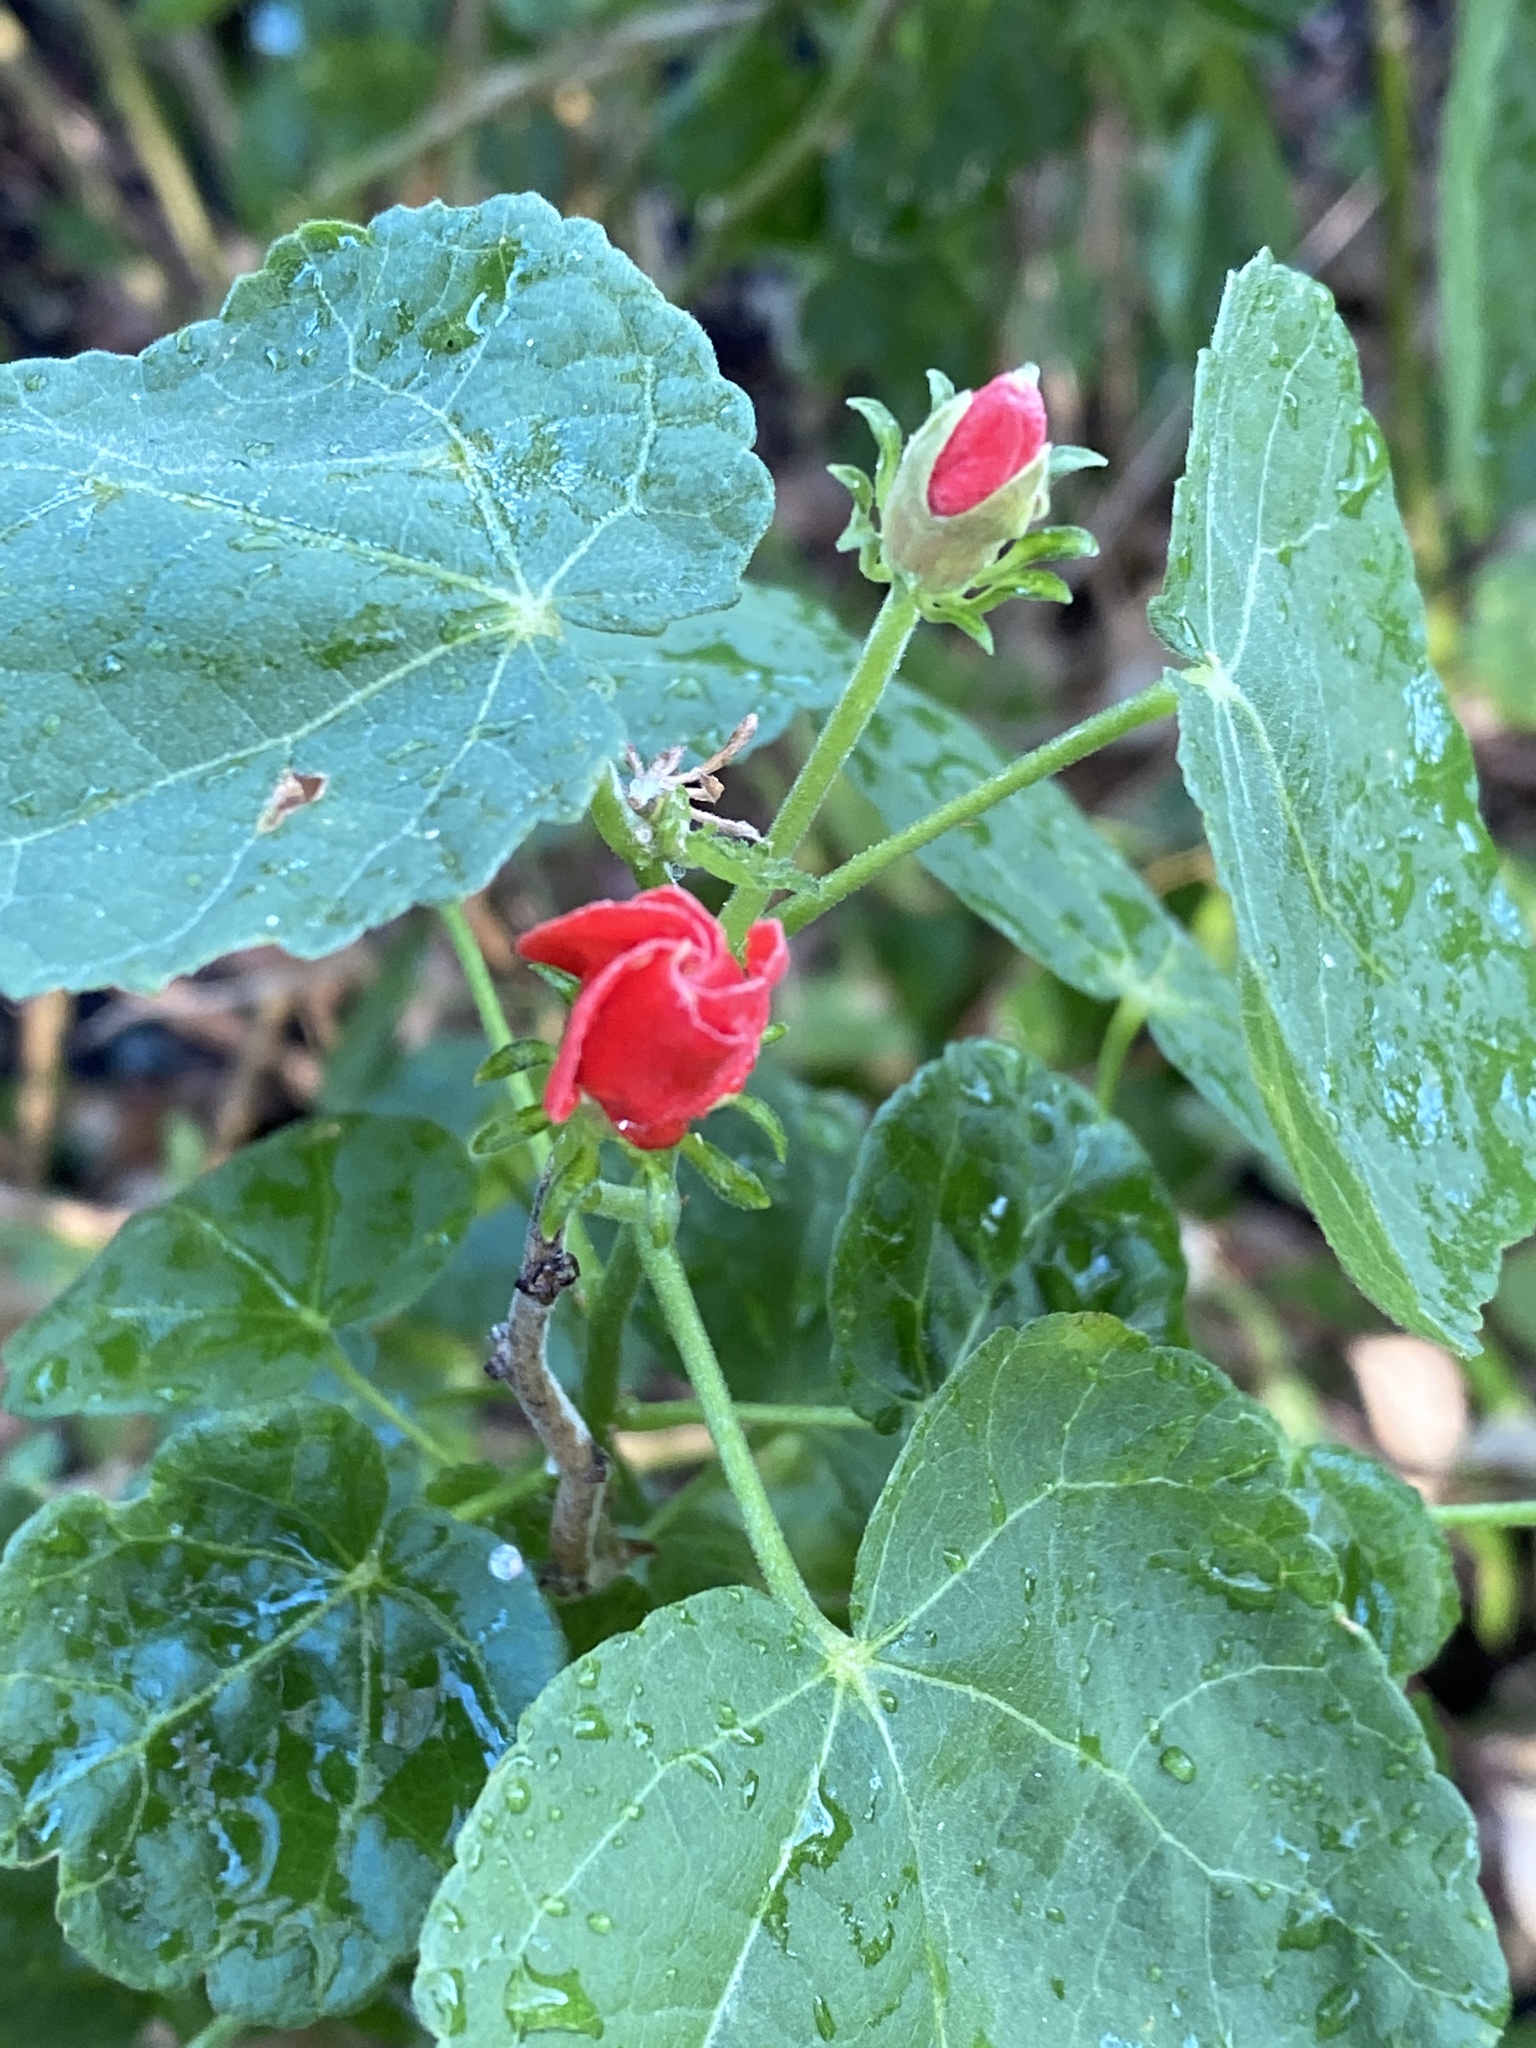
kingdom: Plantae
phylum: Tracheophyta
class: Magnoliopsida
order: Malvales
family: Malvaceae
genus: Malvaviscus
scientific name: Malvaviscus arboreus
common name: Wax mallow
